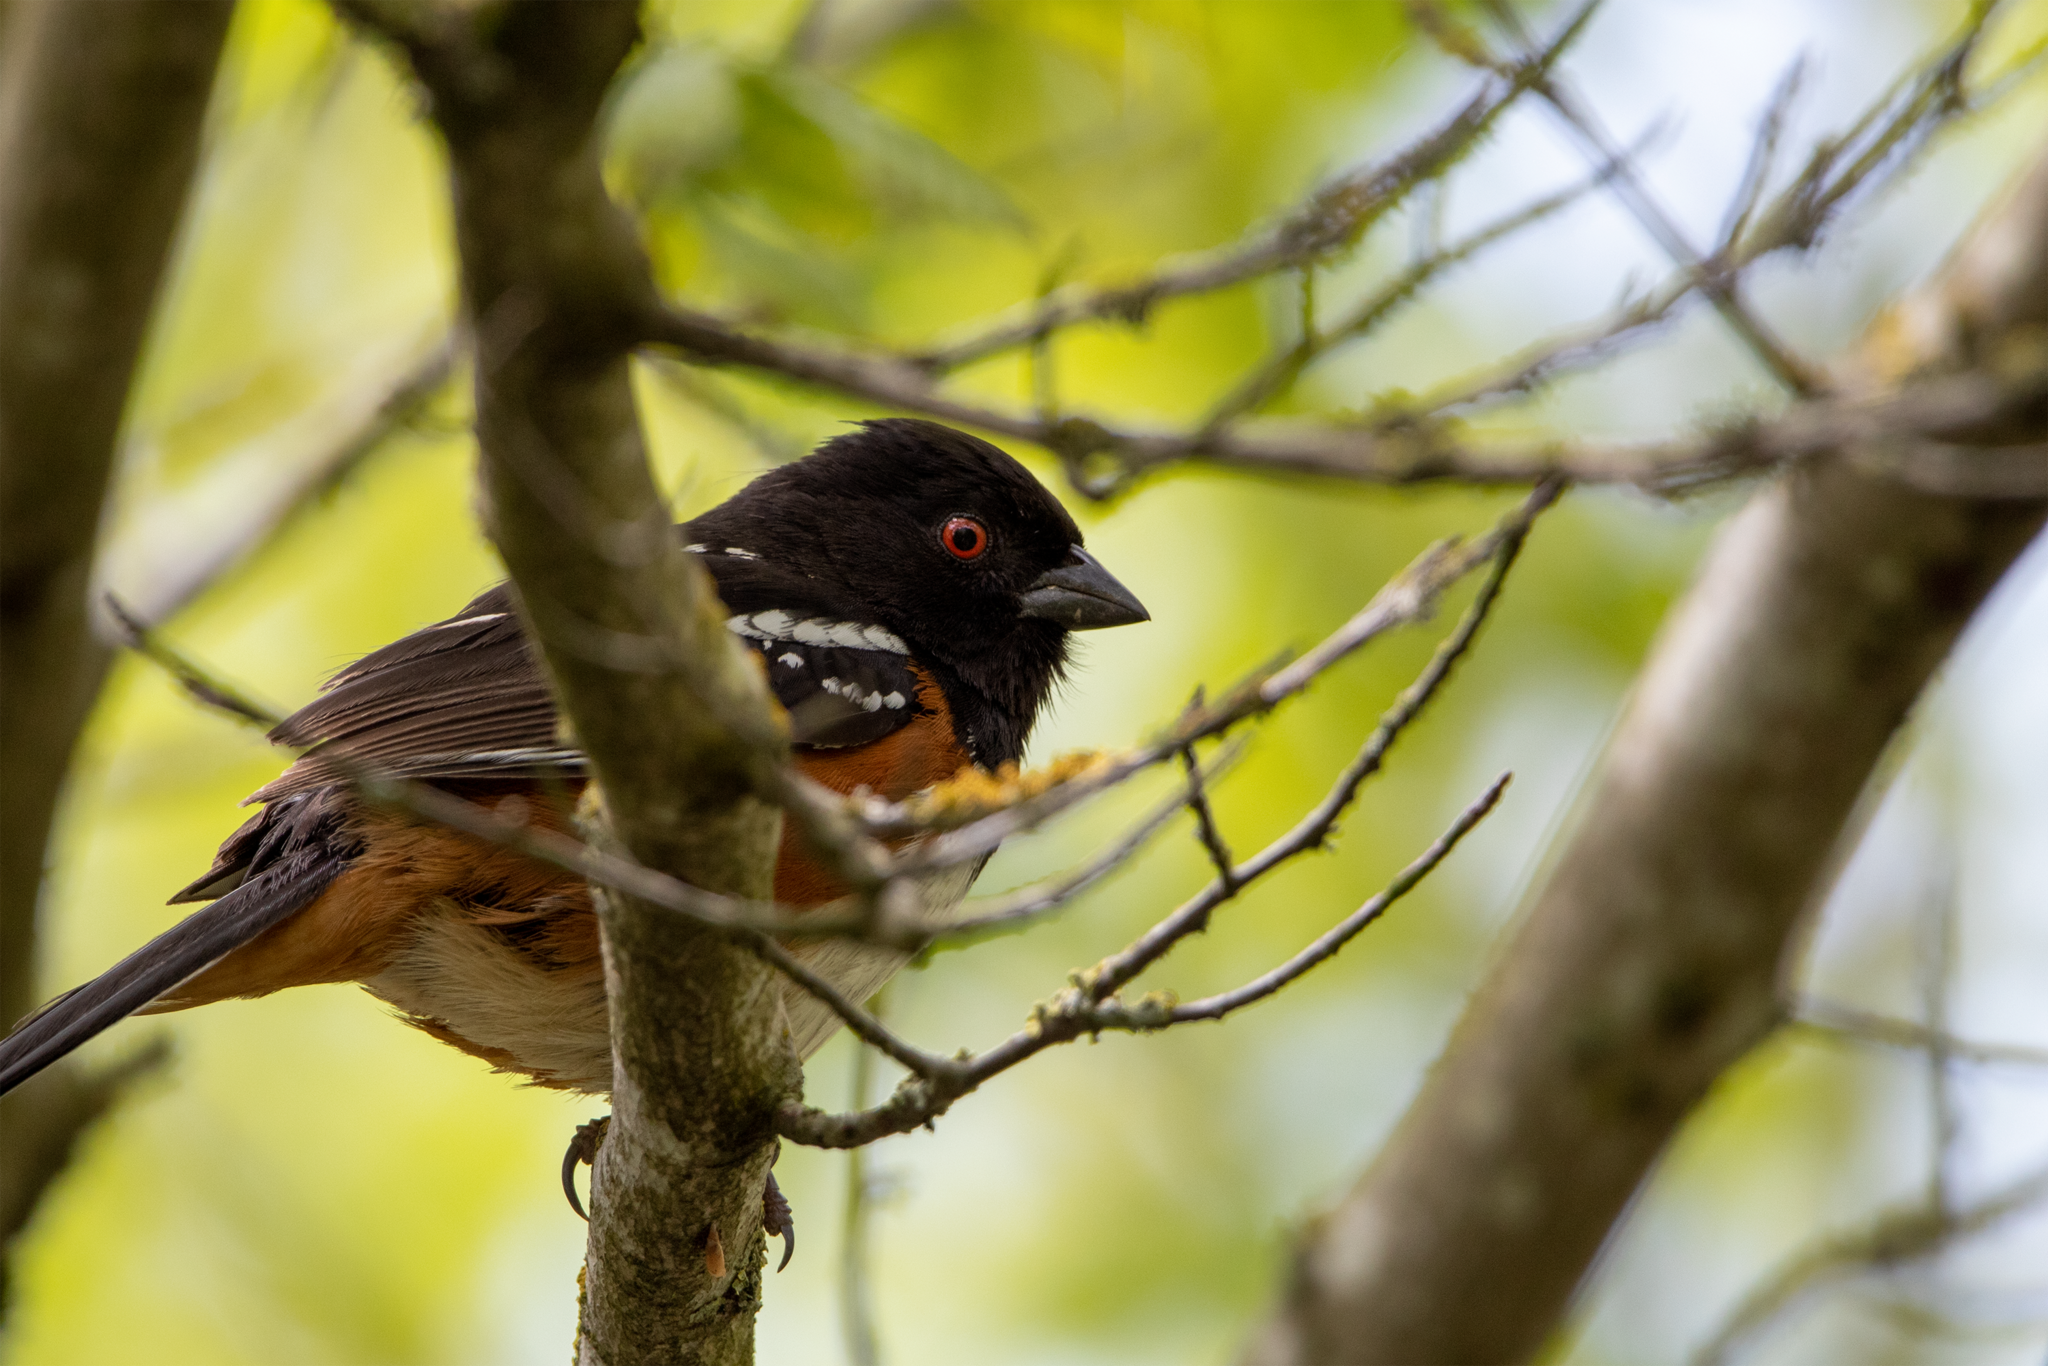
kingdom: Animalia
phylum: Chordata
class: Aves
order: Passeriformes
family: Passerellidae
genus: Pipilo
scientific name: Pipilo maculatus
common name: Spotted towhee
